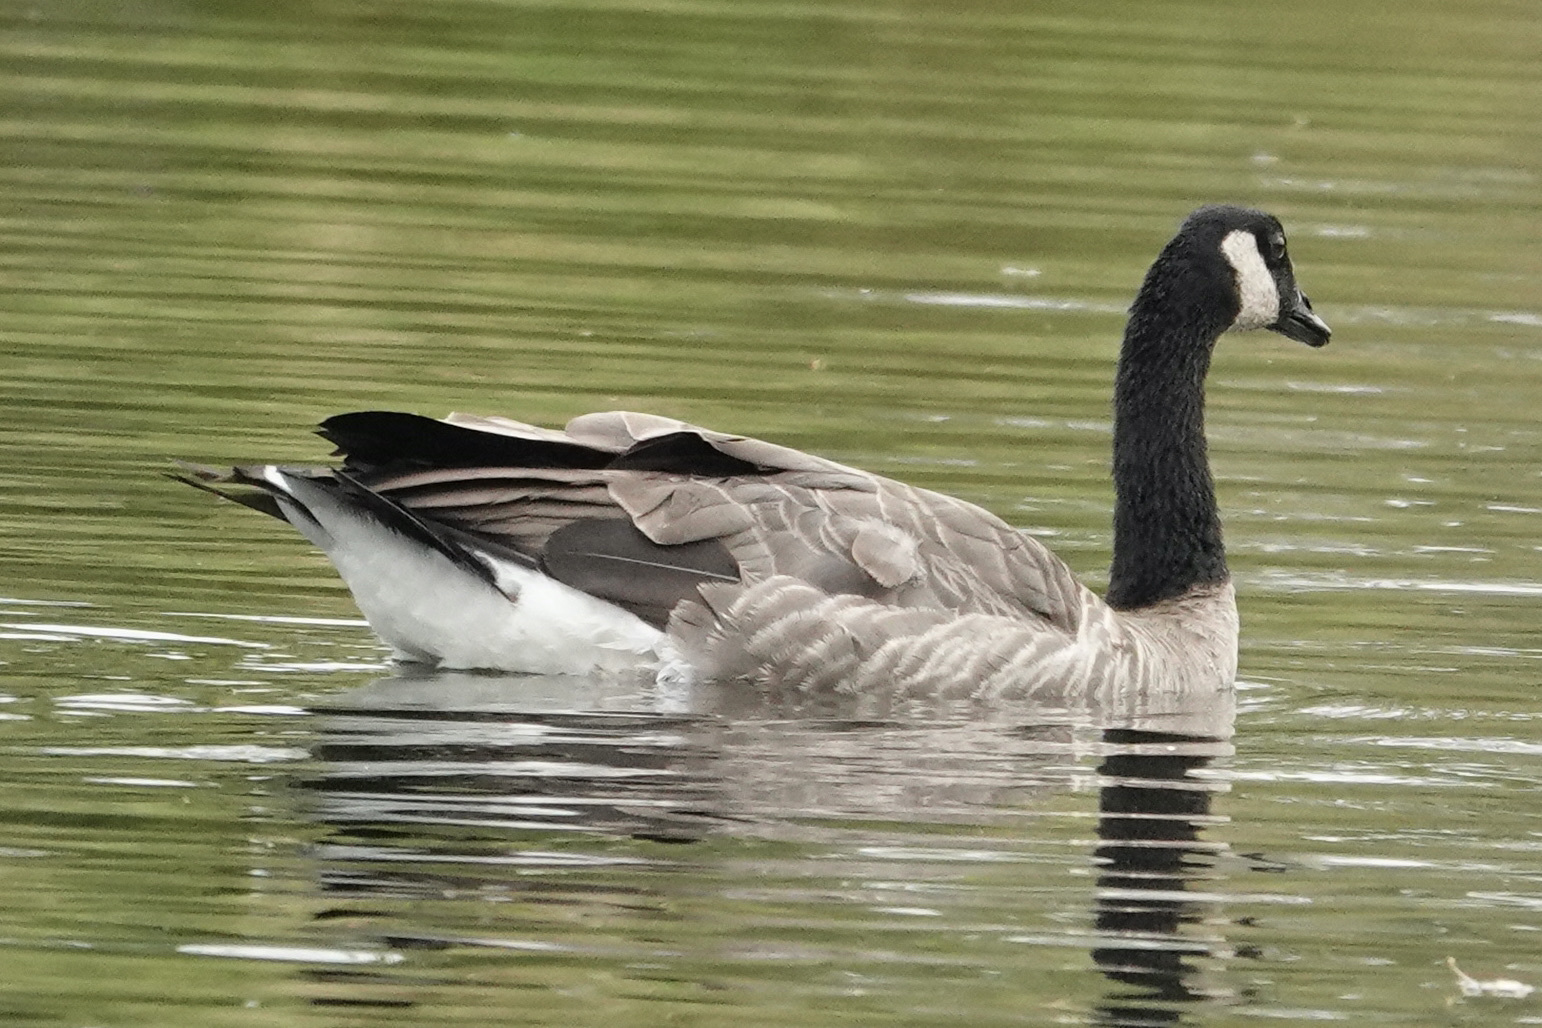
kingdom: Animalia
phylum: Chordata
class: Aves
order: Anseriformes
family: Anatidae
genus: Branta
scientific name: Branta canadensis
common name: Canada goose
